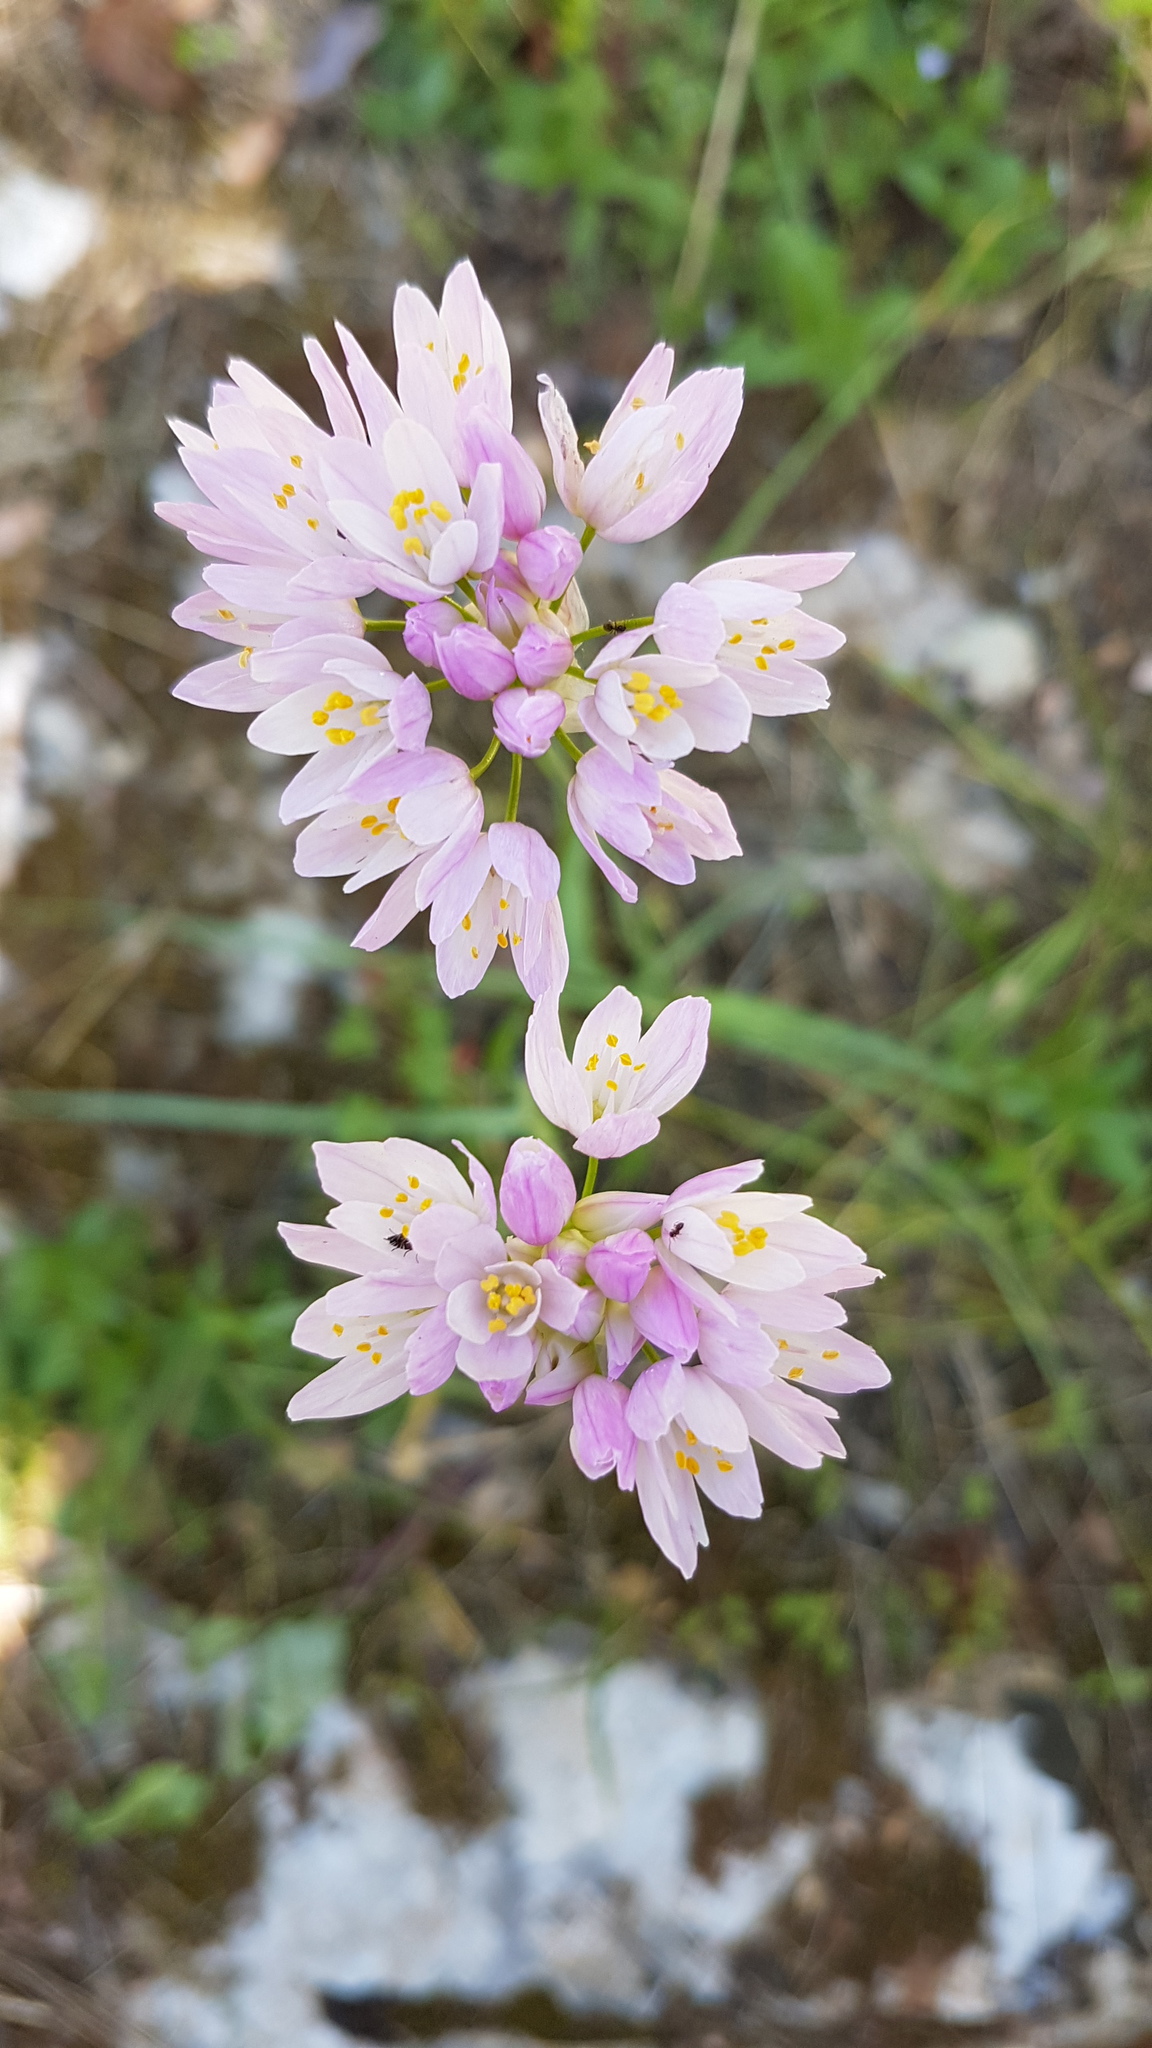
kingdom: Plantae
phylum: Tracheophyta
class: Liliopsida
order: Asparagales
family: Amaryllidaceae
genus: Allium
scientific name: Allium roseum
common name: Rosy garlic
